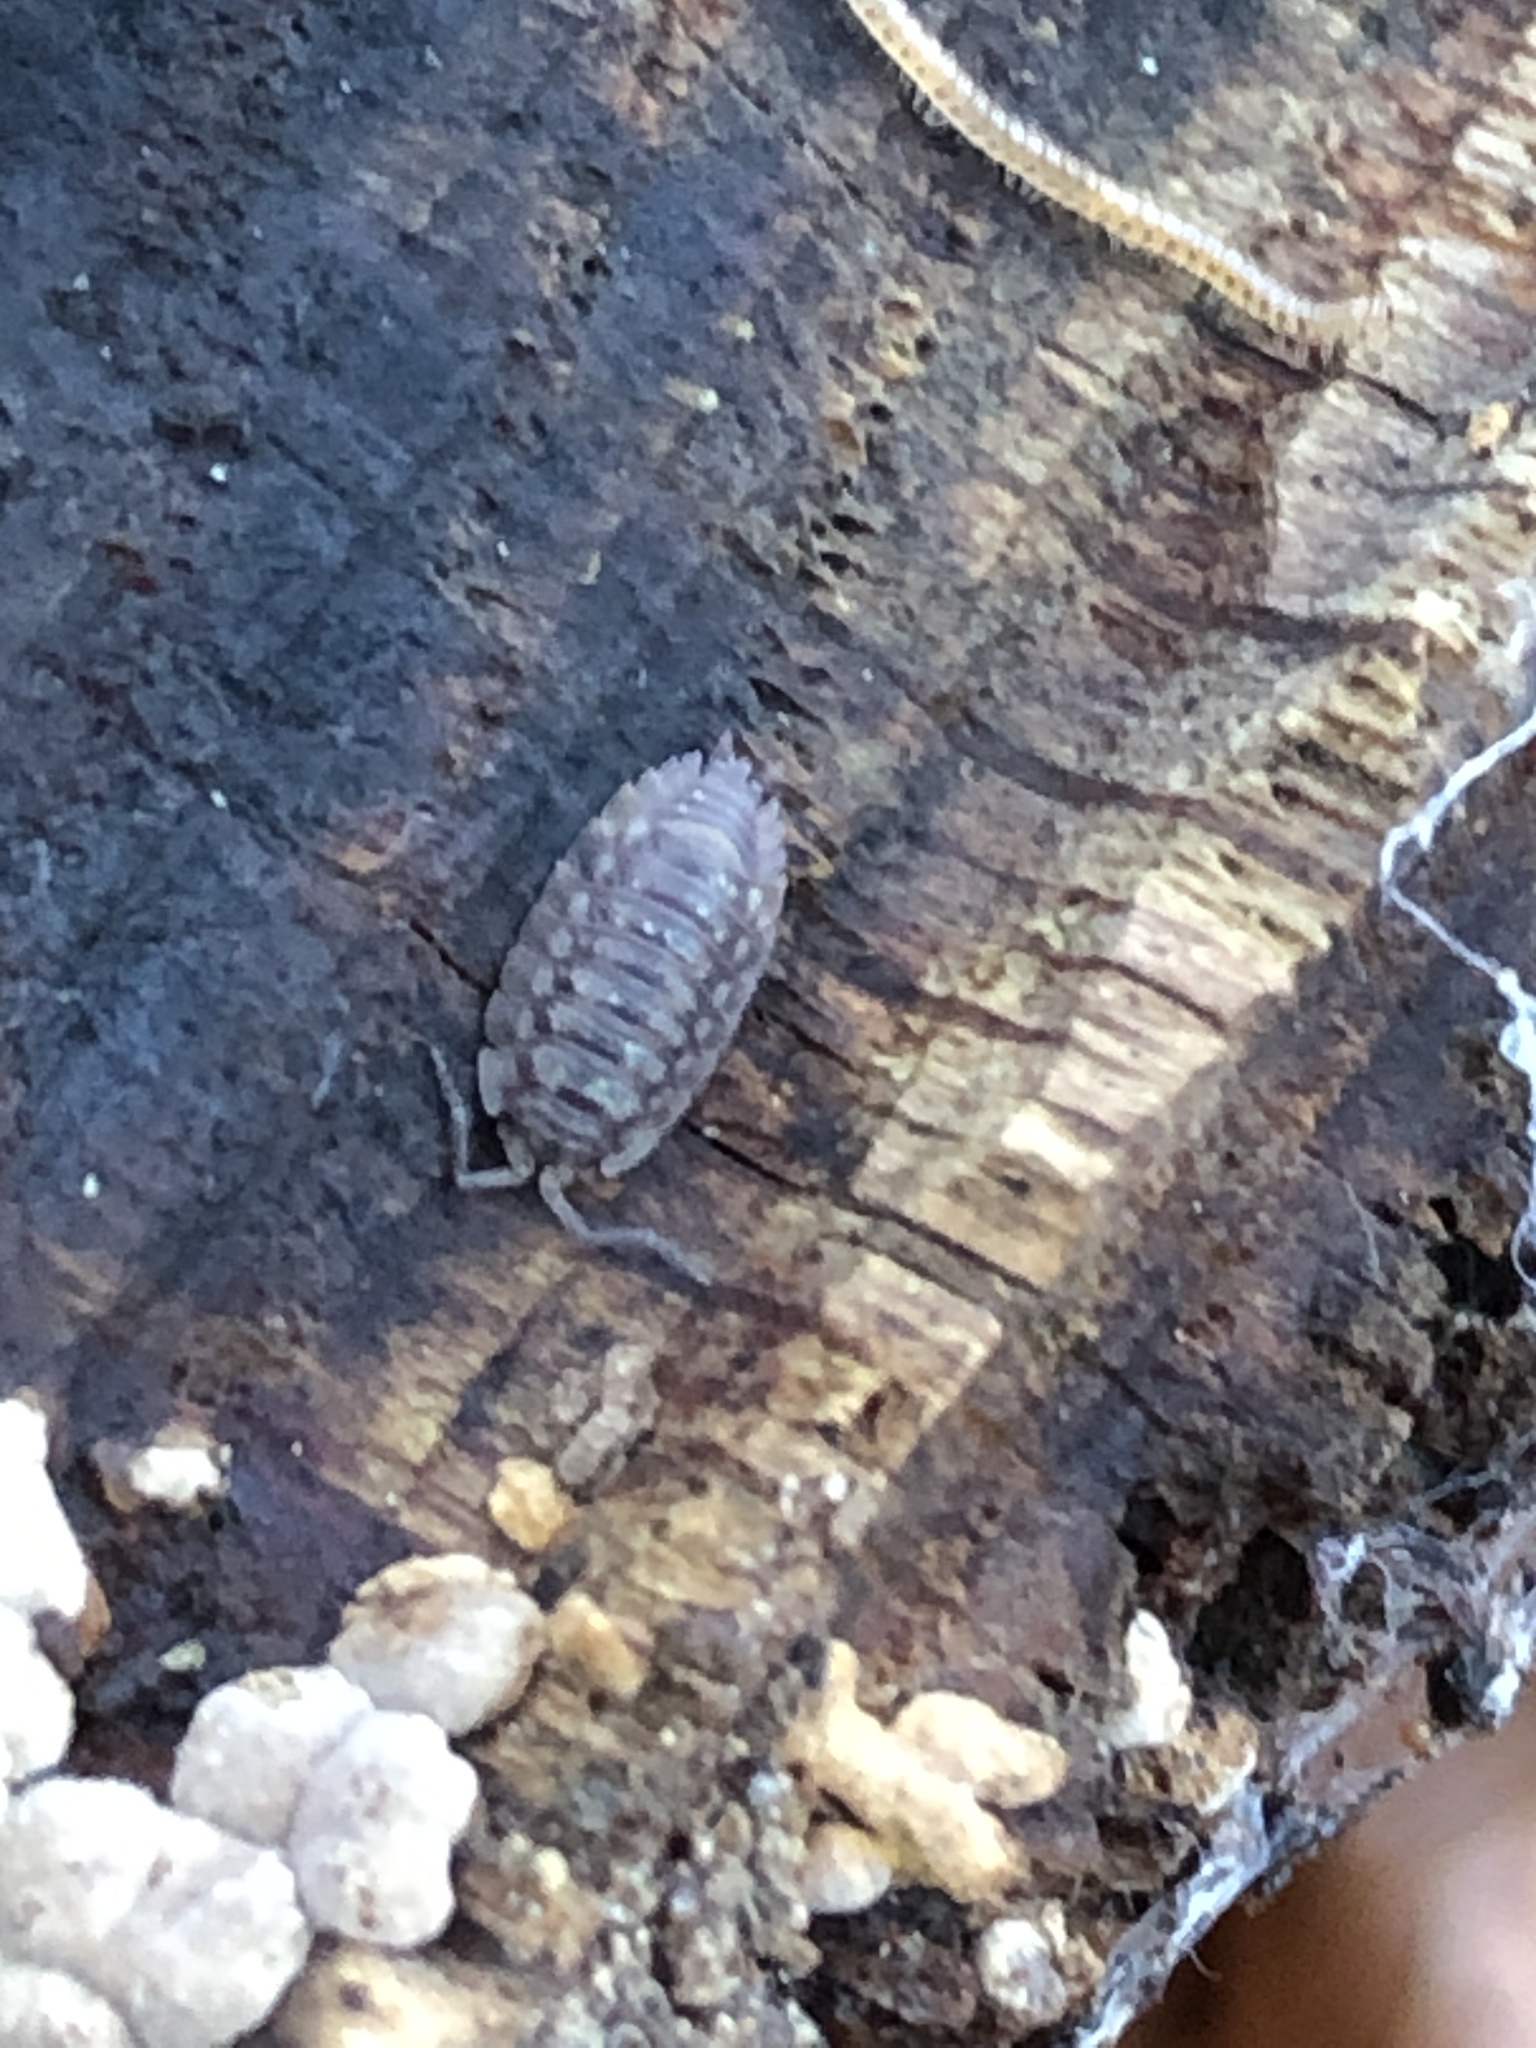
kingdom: Animalia
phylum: Arthropoda
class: Malacostraca
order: Isopoda
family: Oniscidae
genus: Oniscus
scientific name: Oniscus asellus
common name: Common shiny woodlouse
